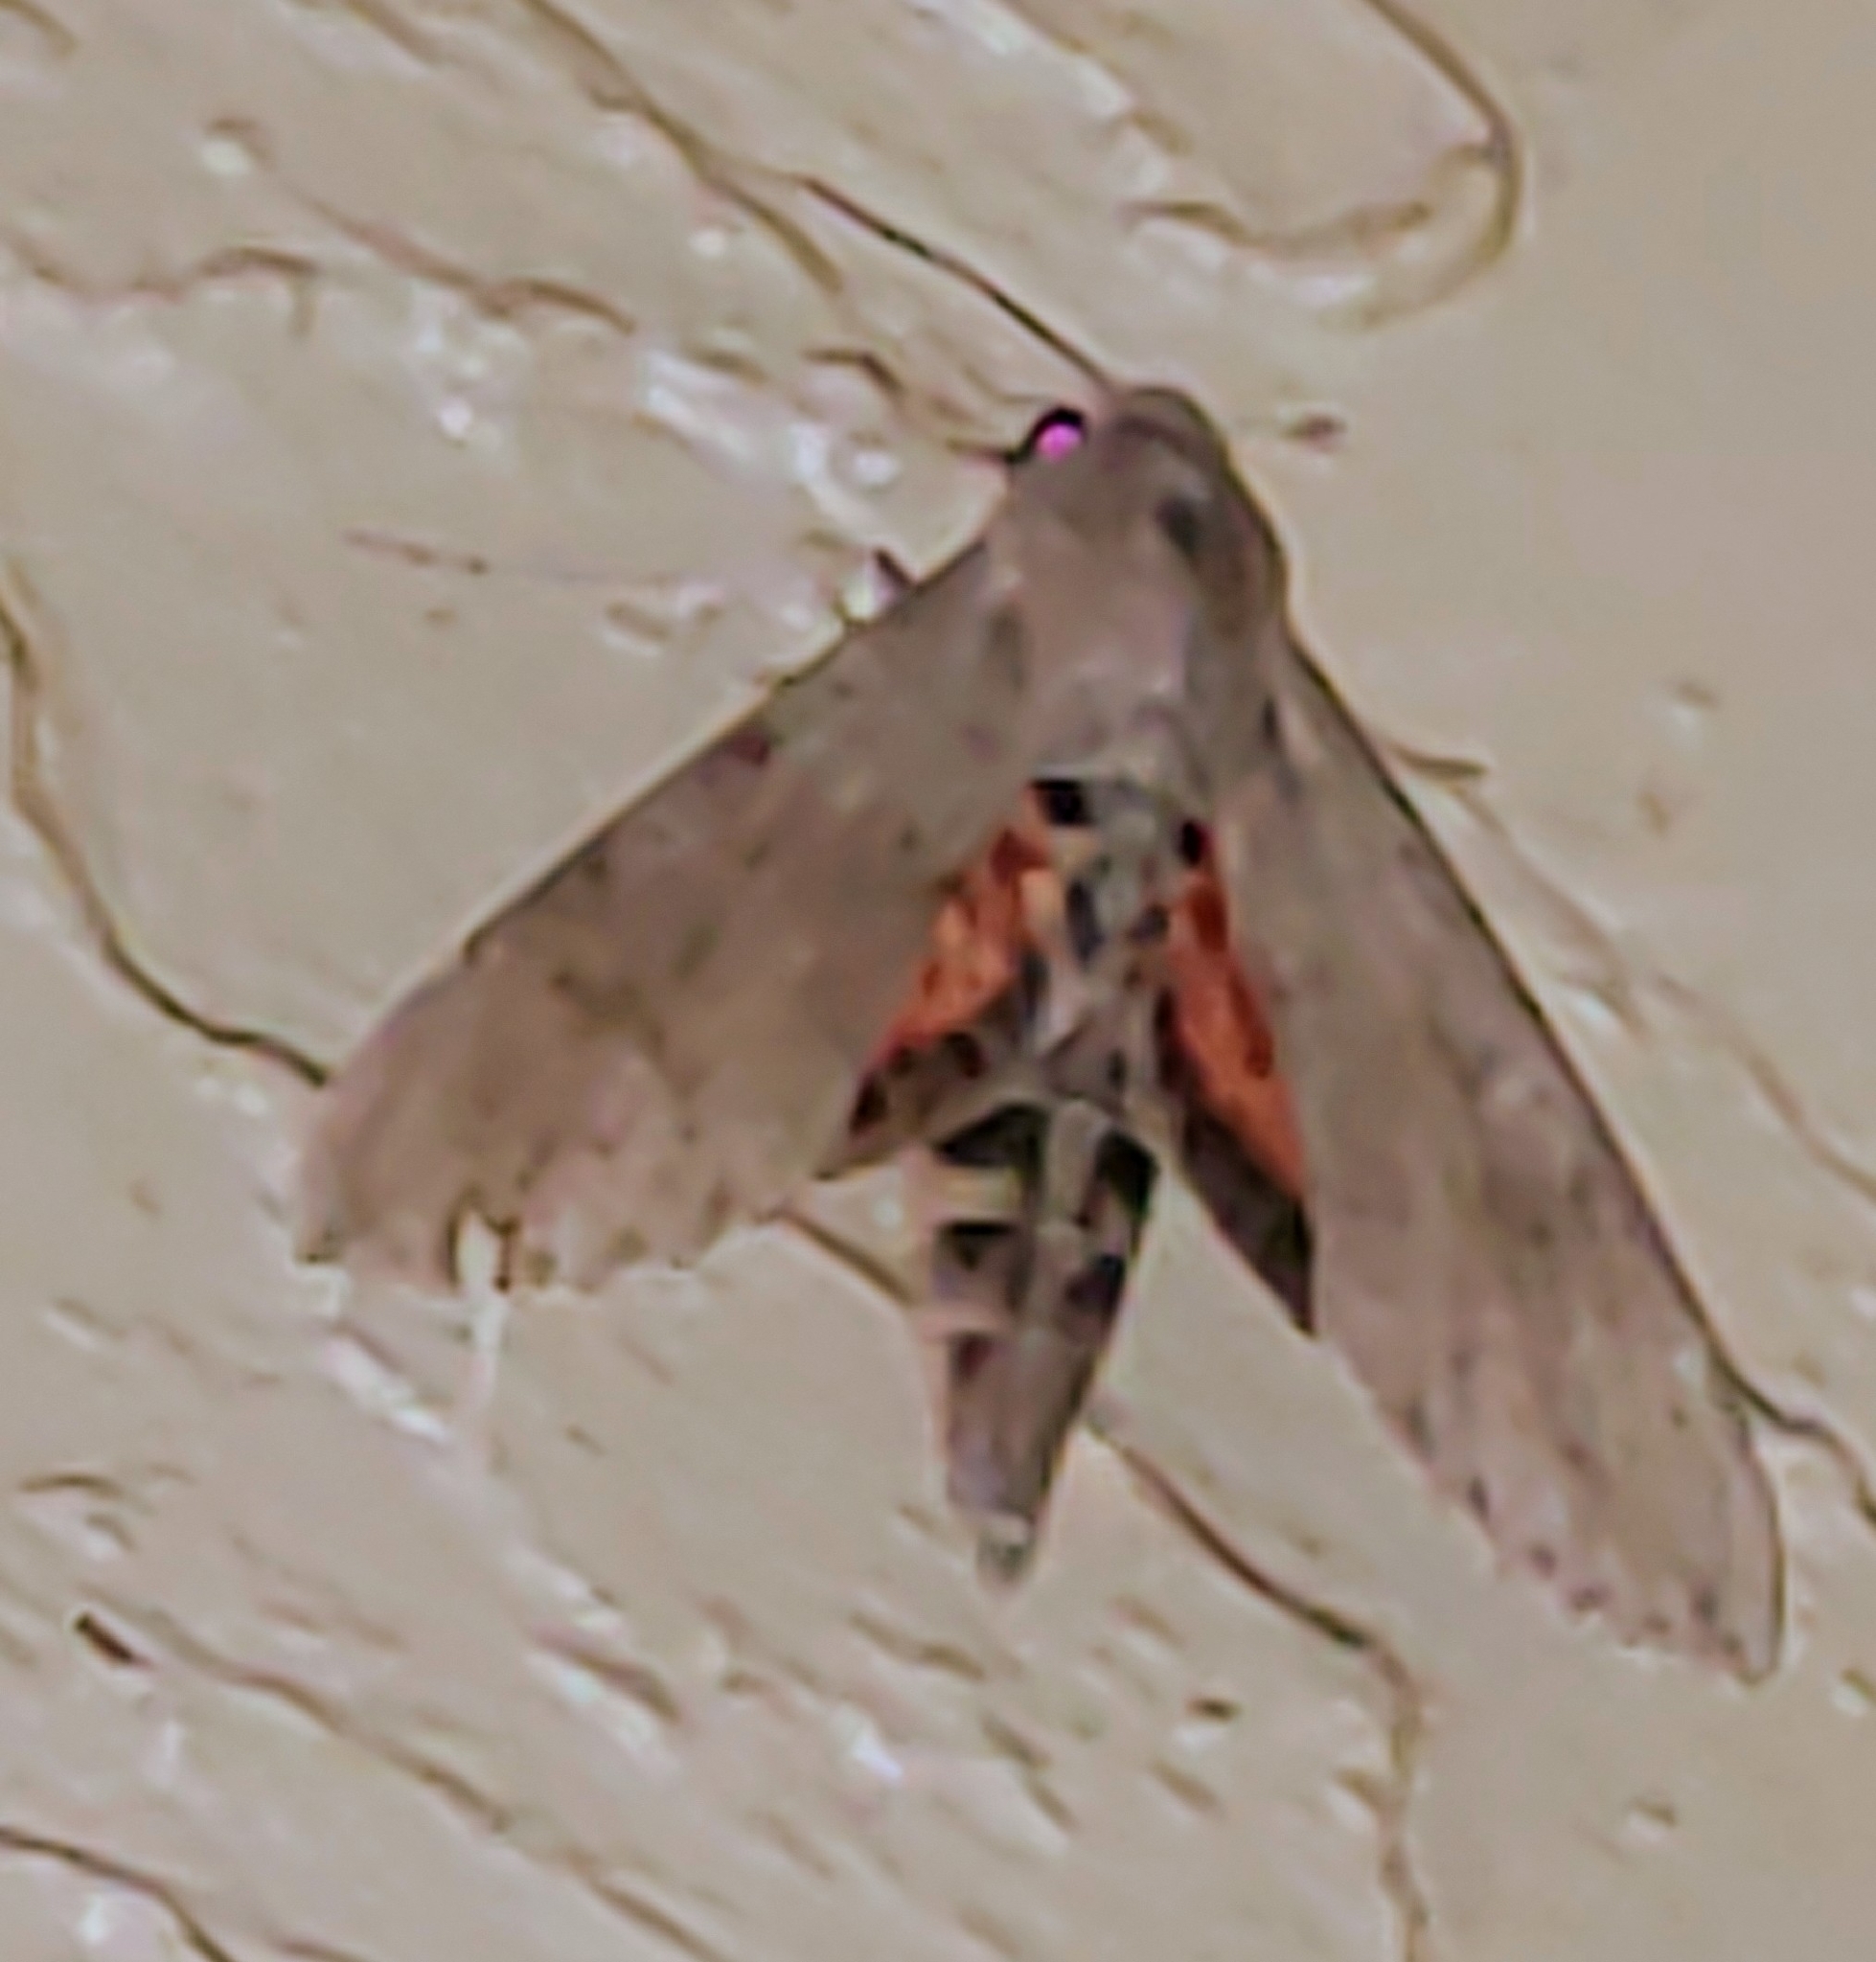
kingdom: Animalia
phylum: Arthropoda
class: Insecta
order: Lepidoptera
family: Sphingidae
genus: Erinnyis
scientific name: Erinnyis ello
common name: Ello sphinx
